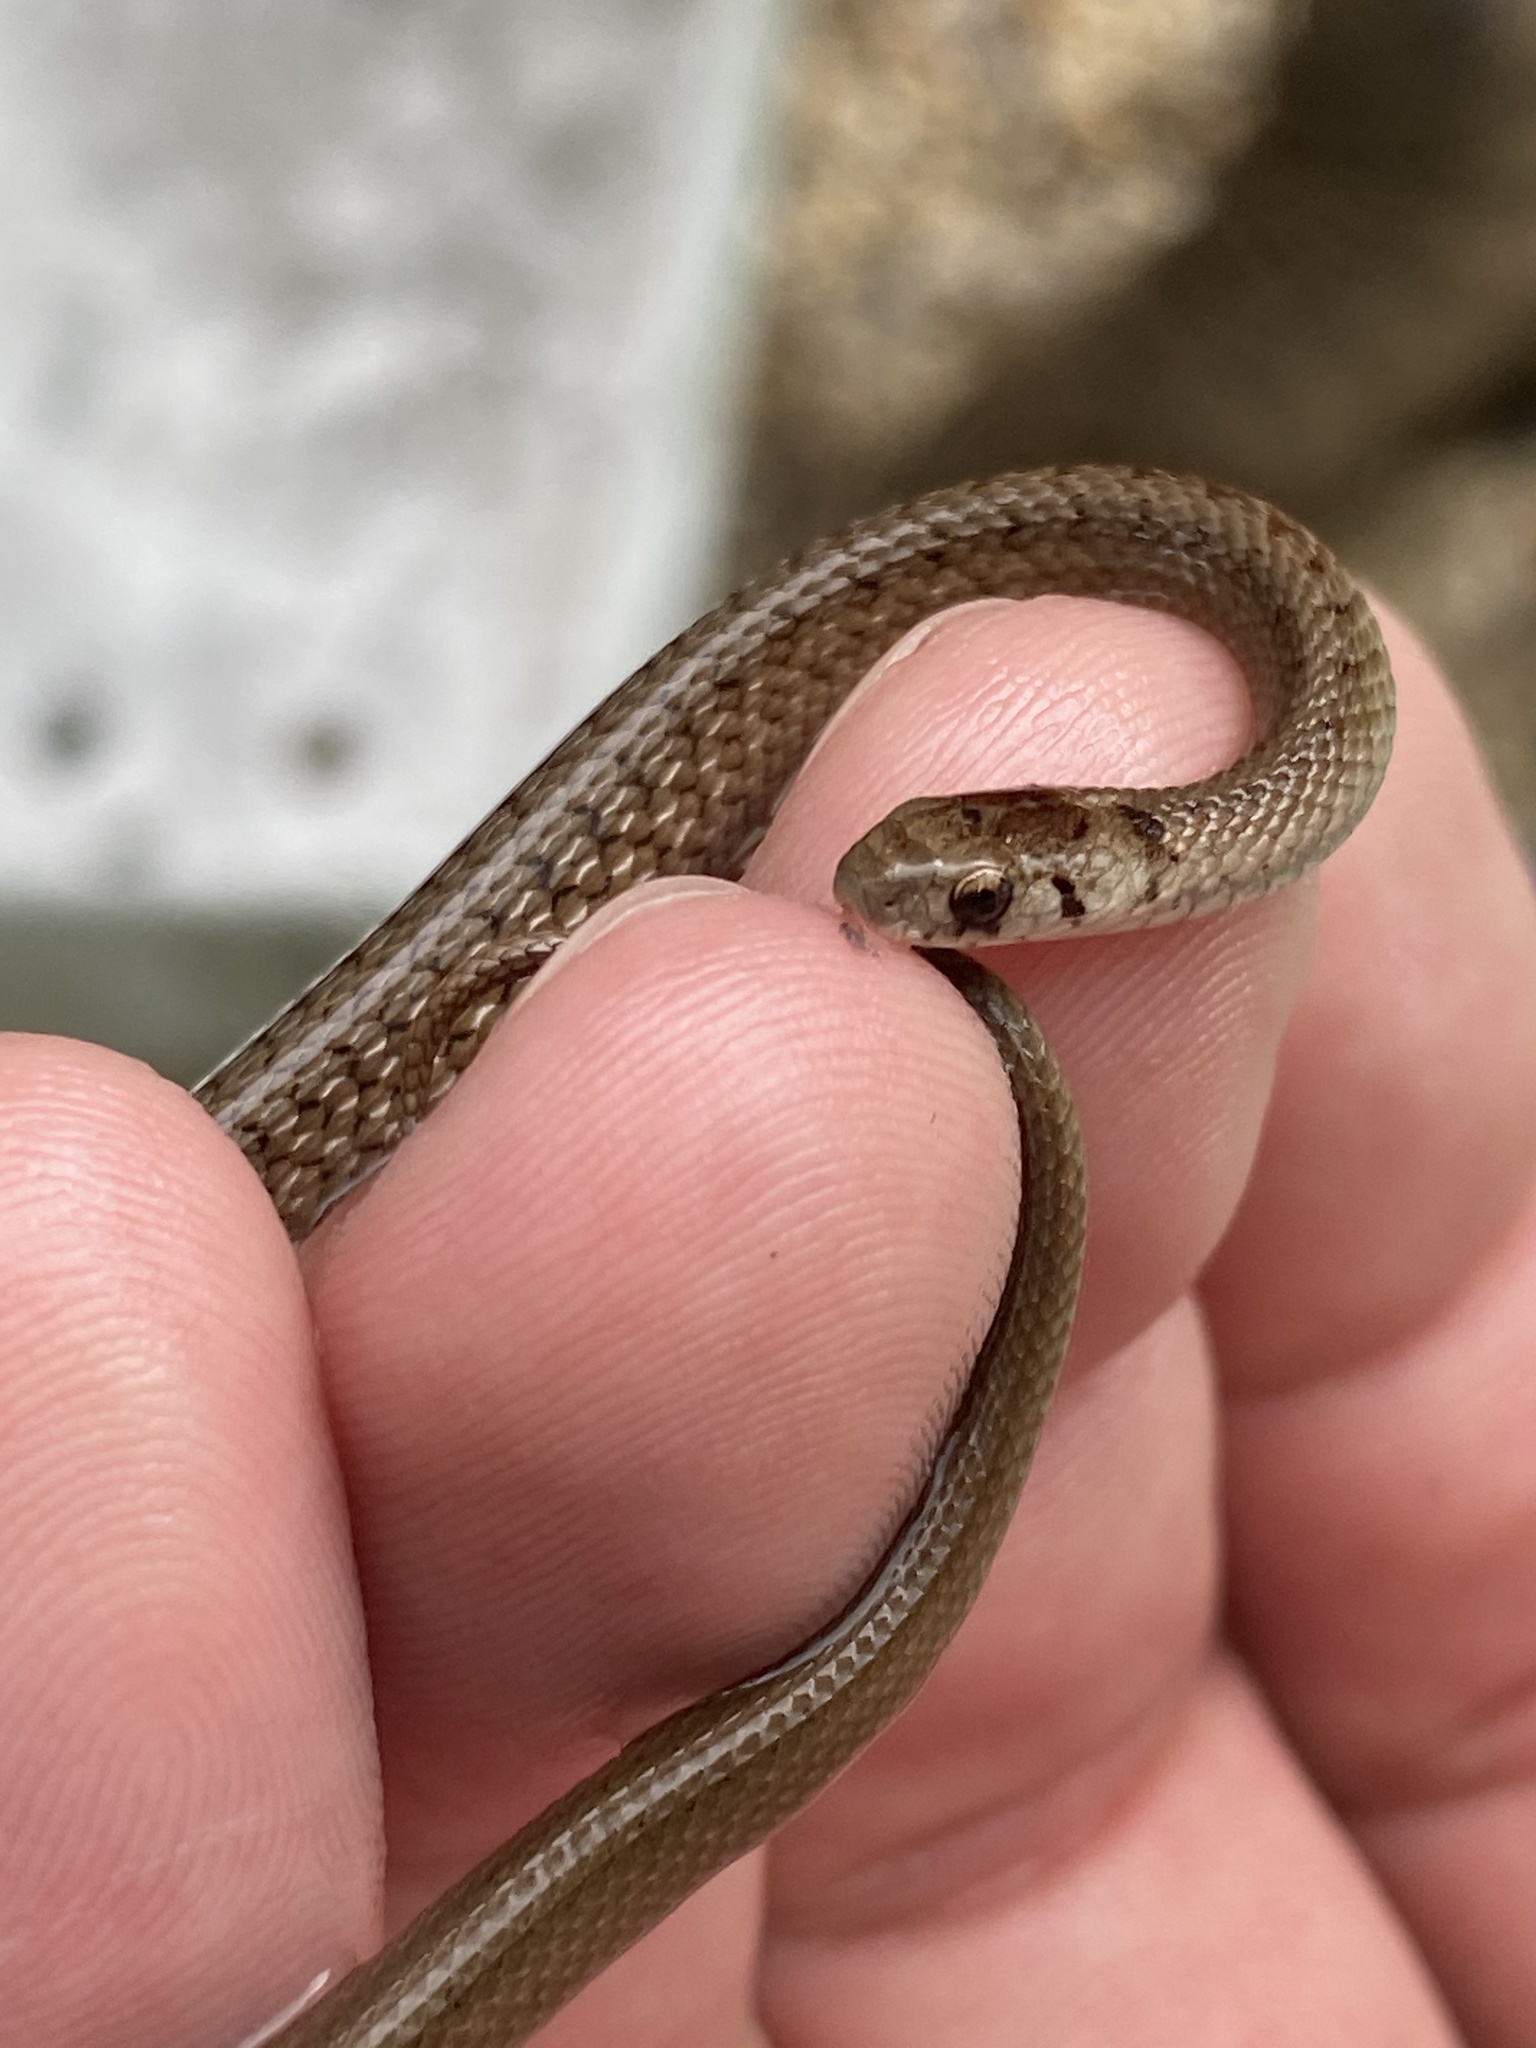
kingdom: Animalia
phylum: Chordata
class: Squamata
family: Colubridae
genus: Storeria
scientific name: Storeria dekayi
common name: (dekay’s) brown snake
